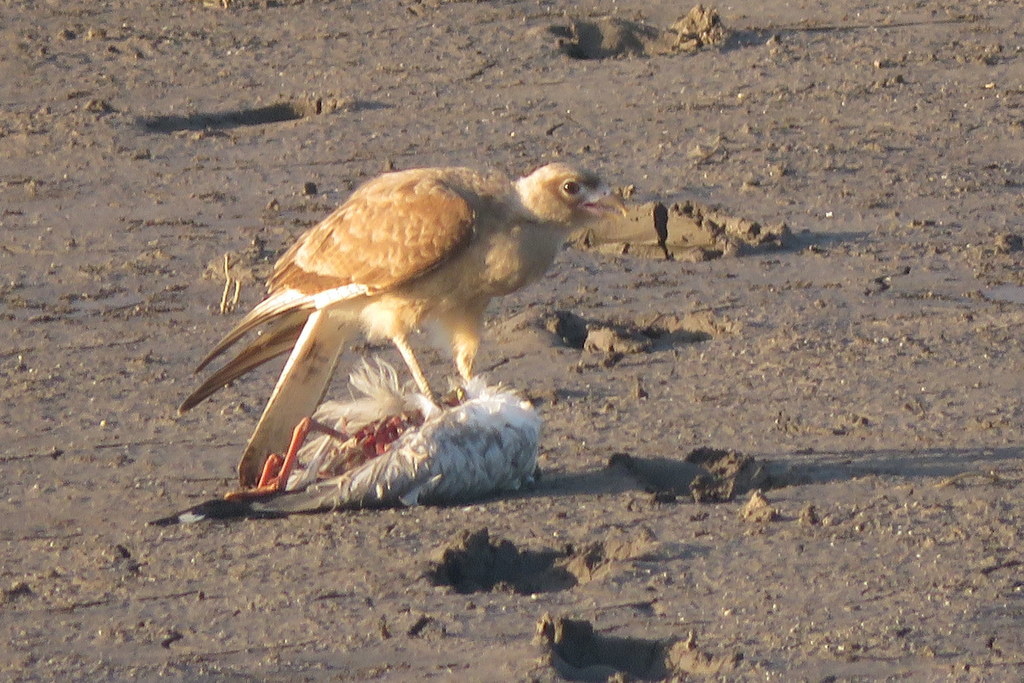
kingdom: Animalia
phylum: Chordata
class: Aves
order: Falconiformes
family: Falconidae
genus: Daptrius
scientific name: Daptrius
